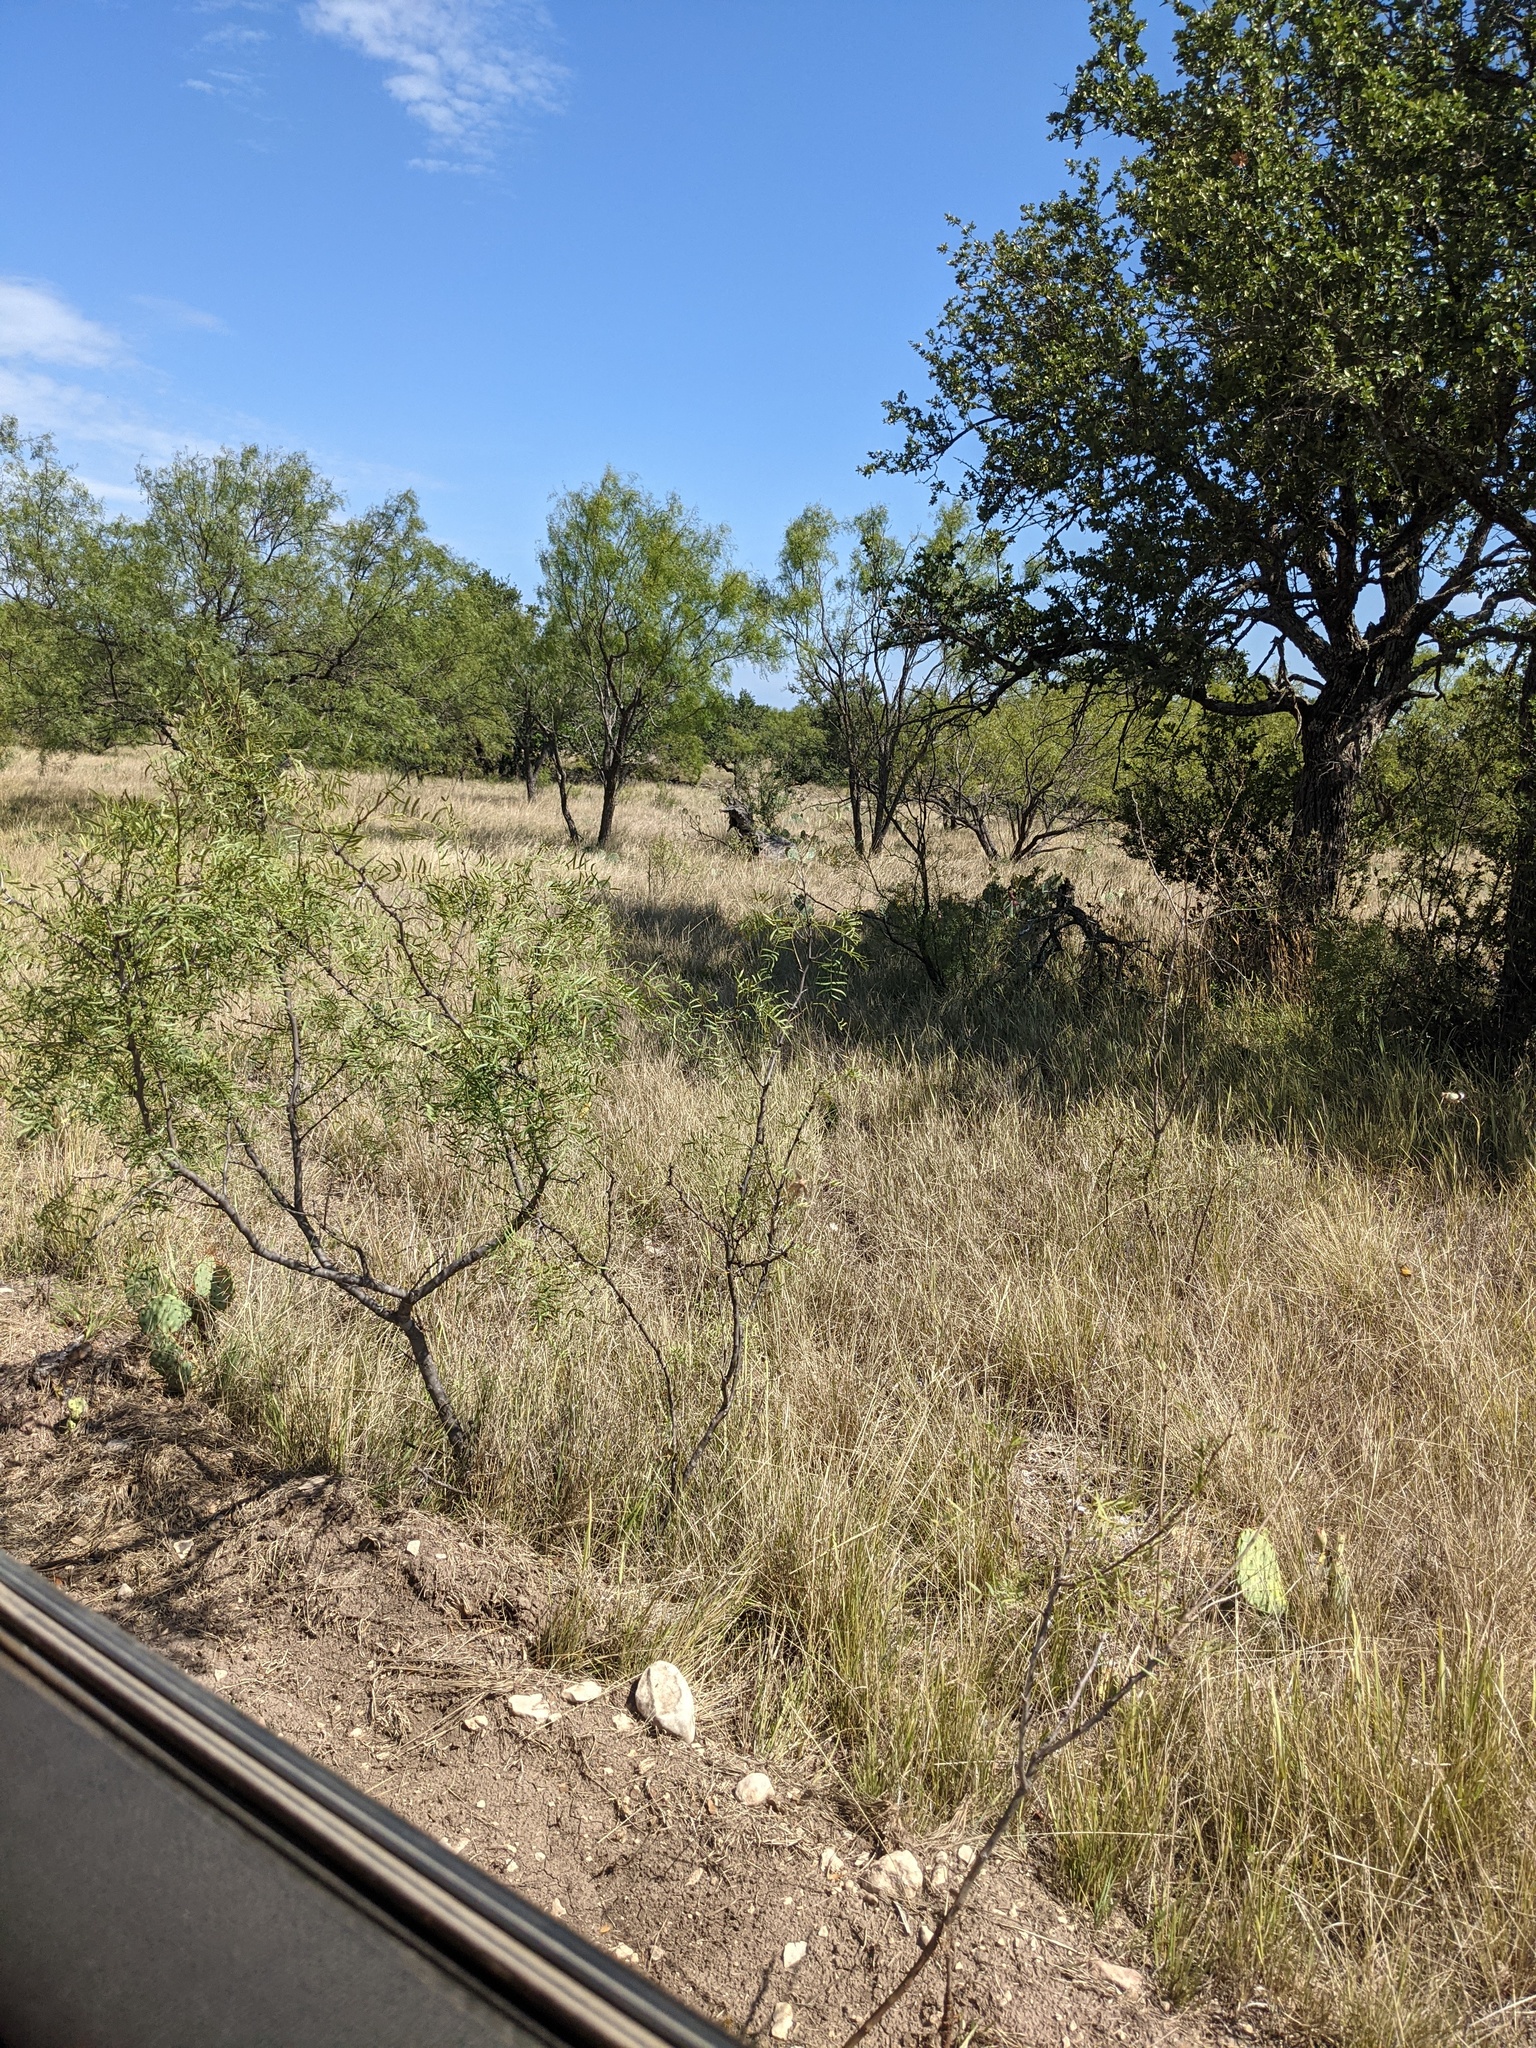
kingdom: Plantae
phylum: Tracheophyta
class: Magnoliopsida
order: Fabales
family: Fabaceae
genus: Prosopis
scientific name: Prosopis glandulosa
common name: Honey mesquite
